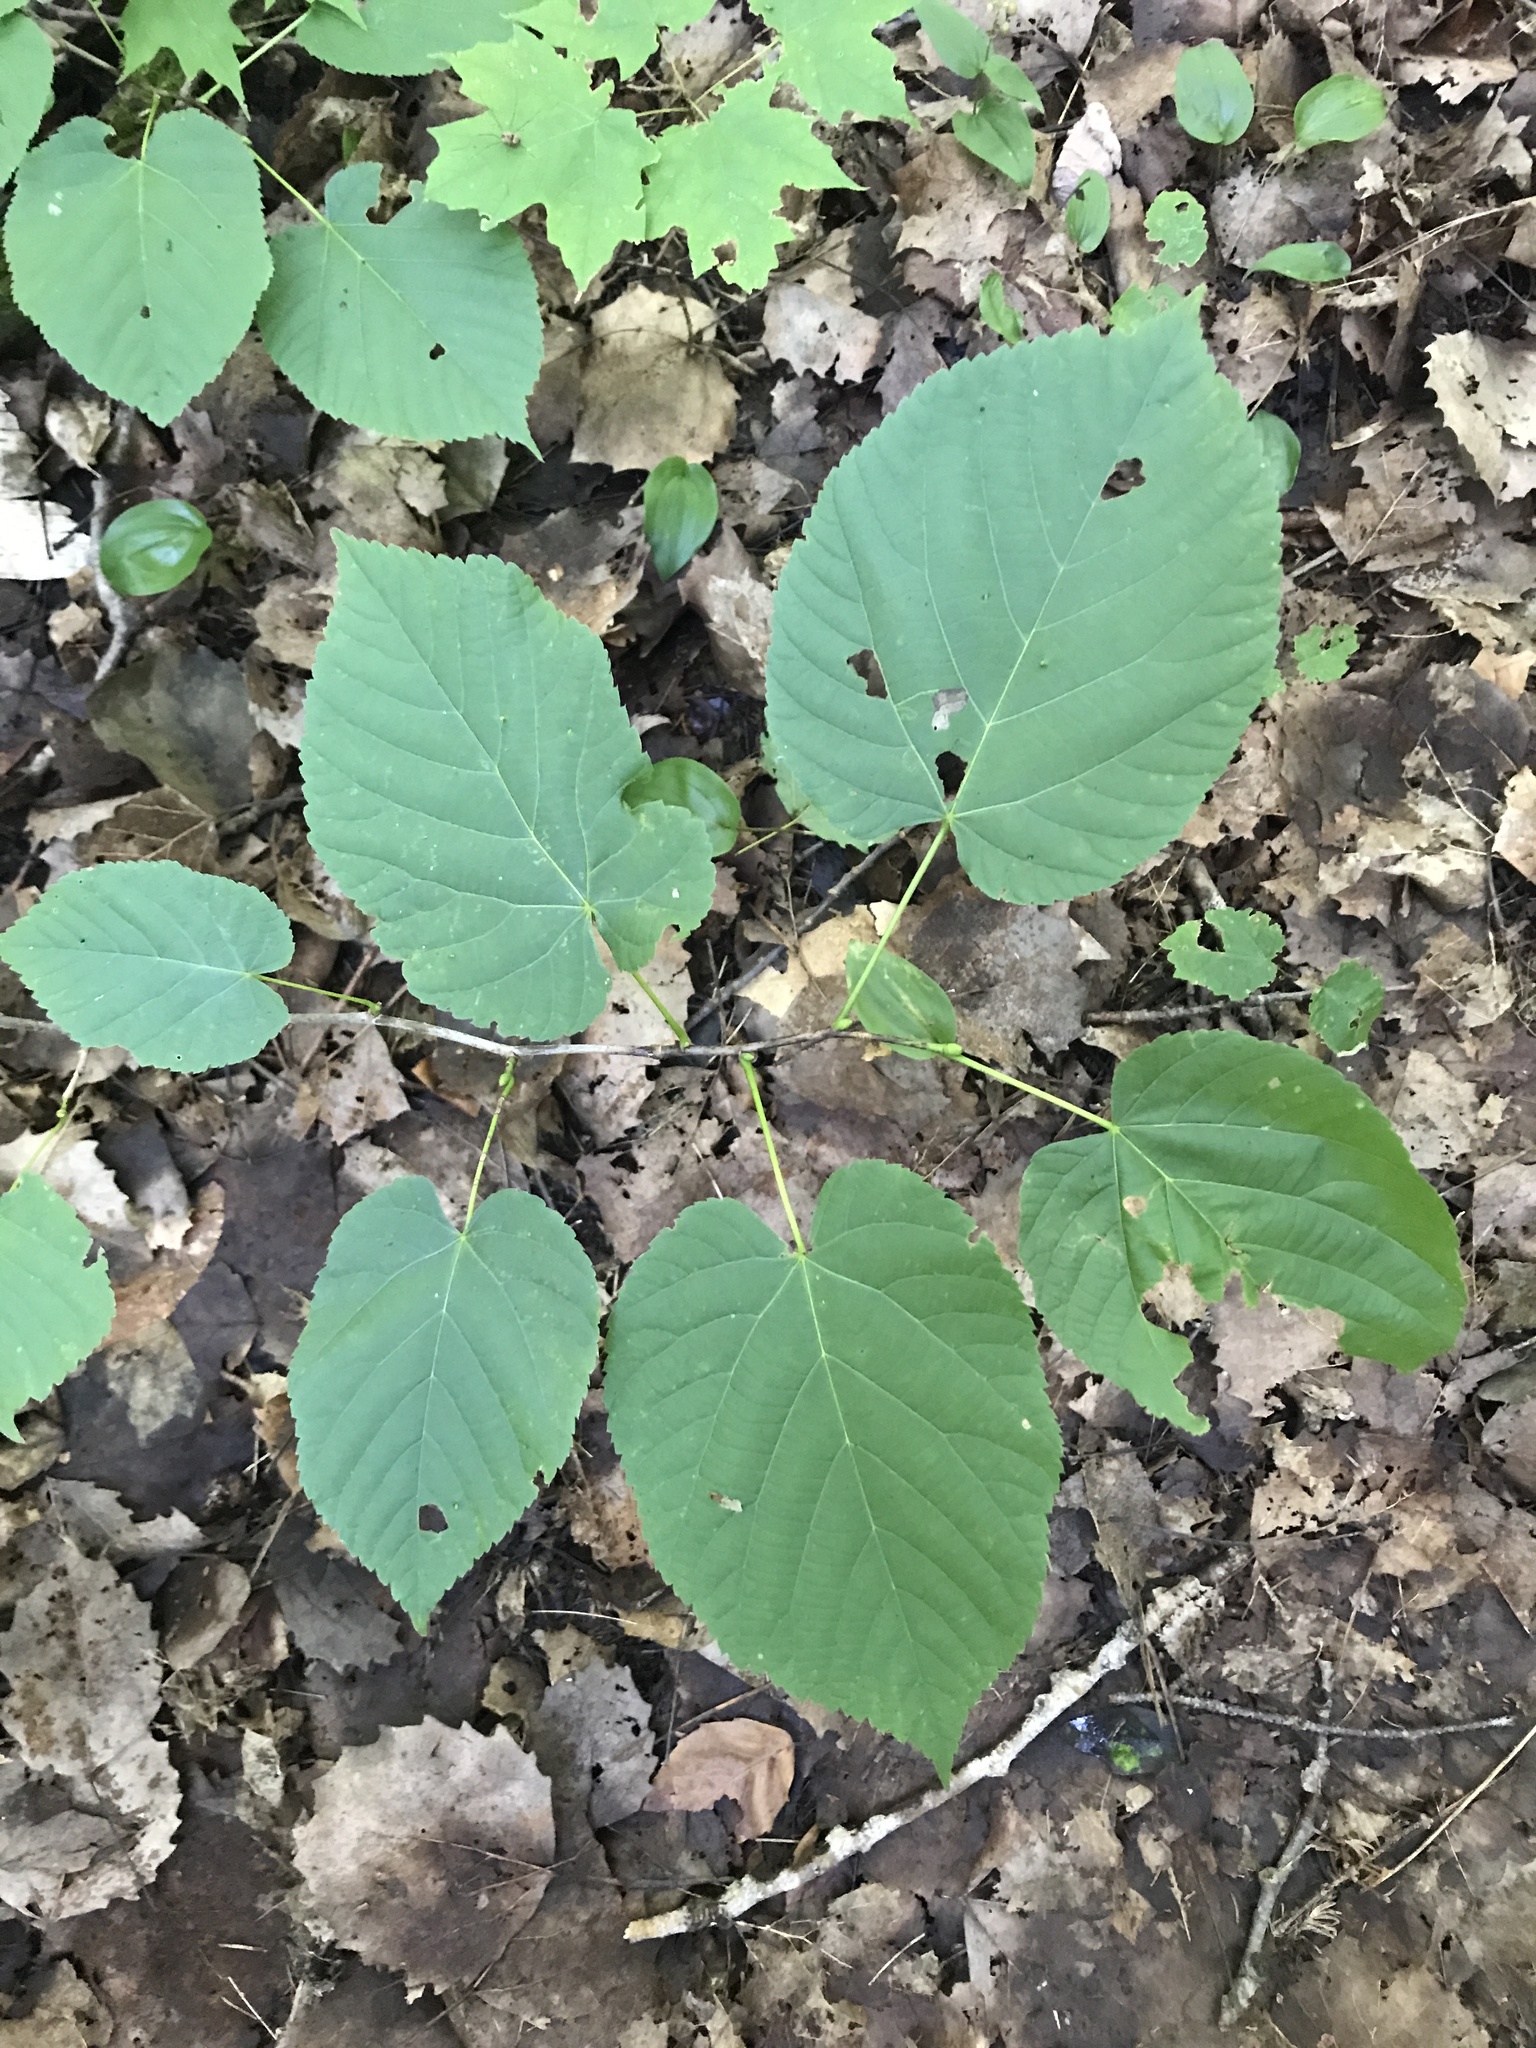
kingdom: Plantae
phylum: Tracheophyta
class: Magnoliopsida
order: Malvales
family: Malvaceae
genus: Tilia
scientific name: Tilia americana
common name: Basswood
